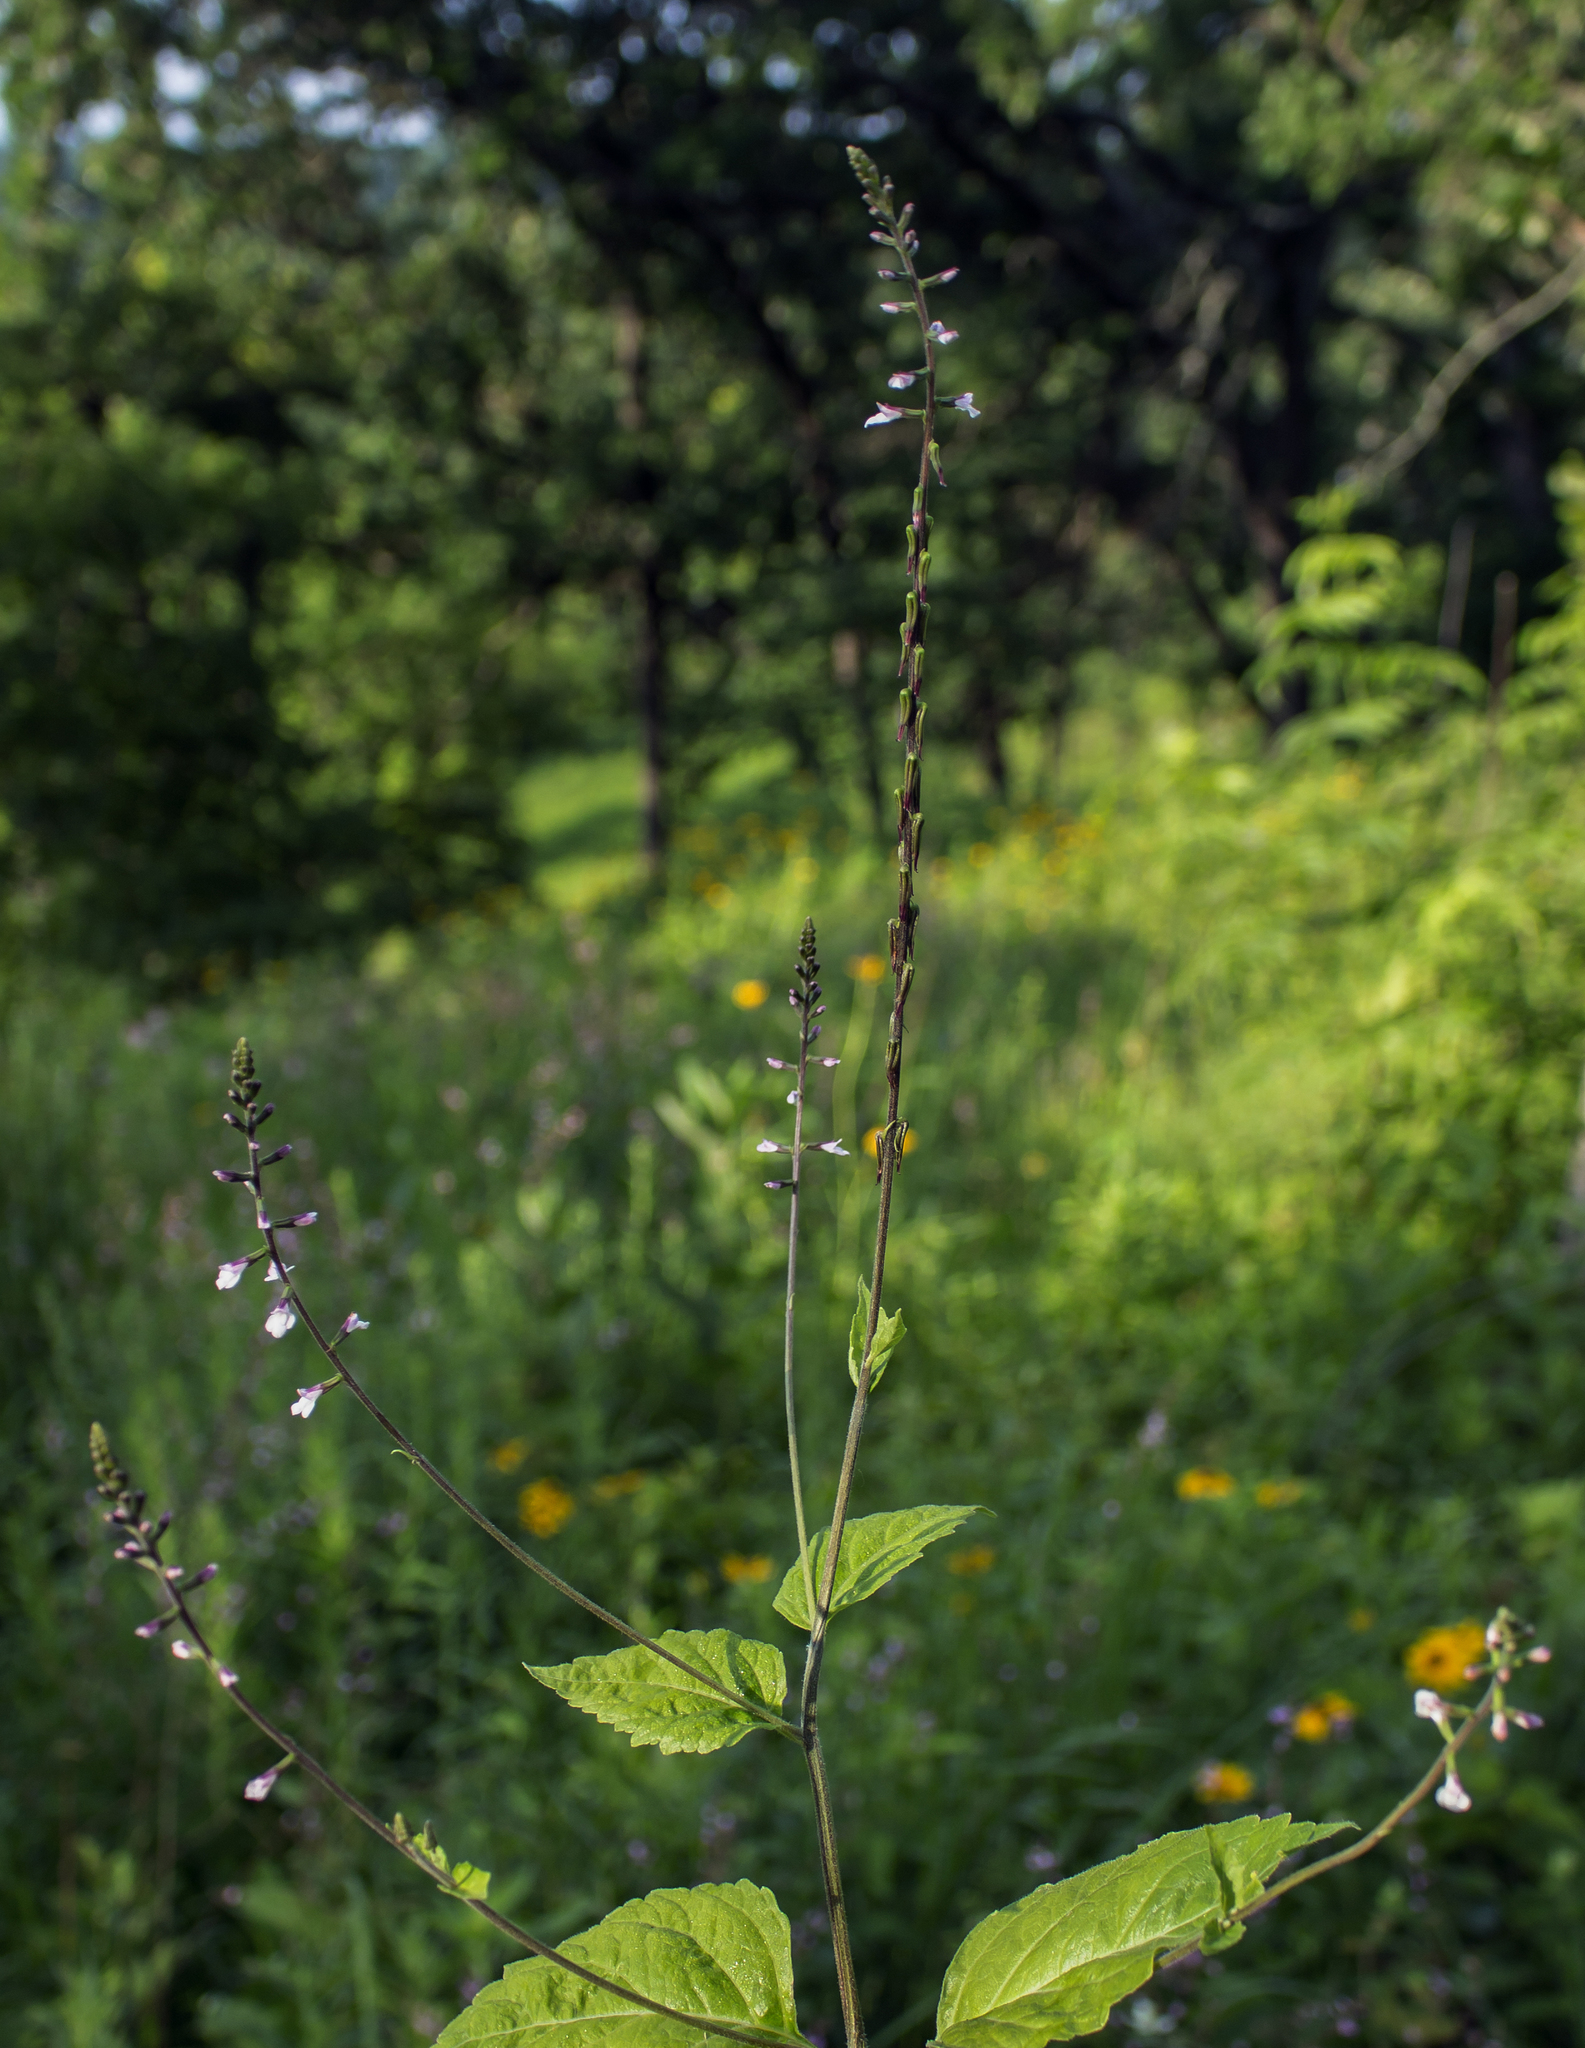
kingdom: Plantae
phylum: Tracheophyta
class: Magnoliopsida
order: Lamiales
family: Phrymaceae
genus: Phryma
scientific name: Phryma leptostachya
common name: American lopseed
